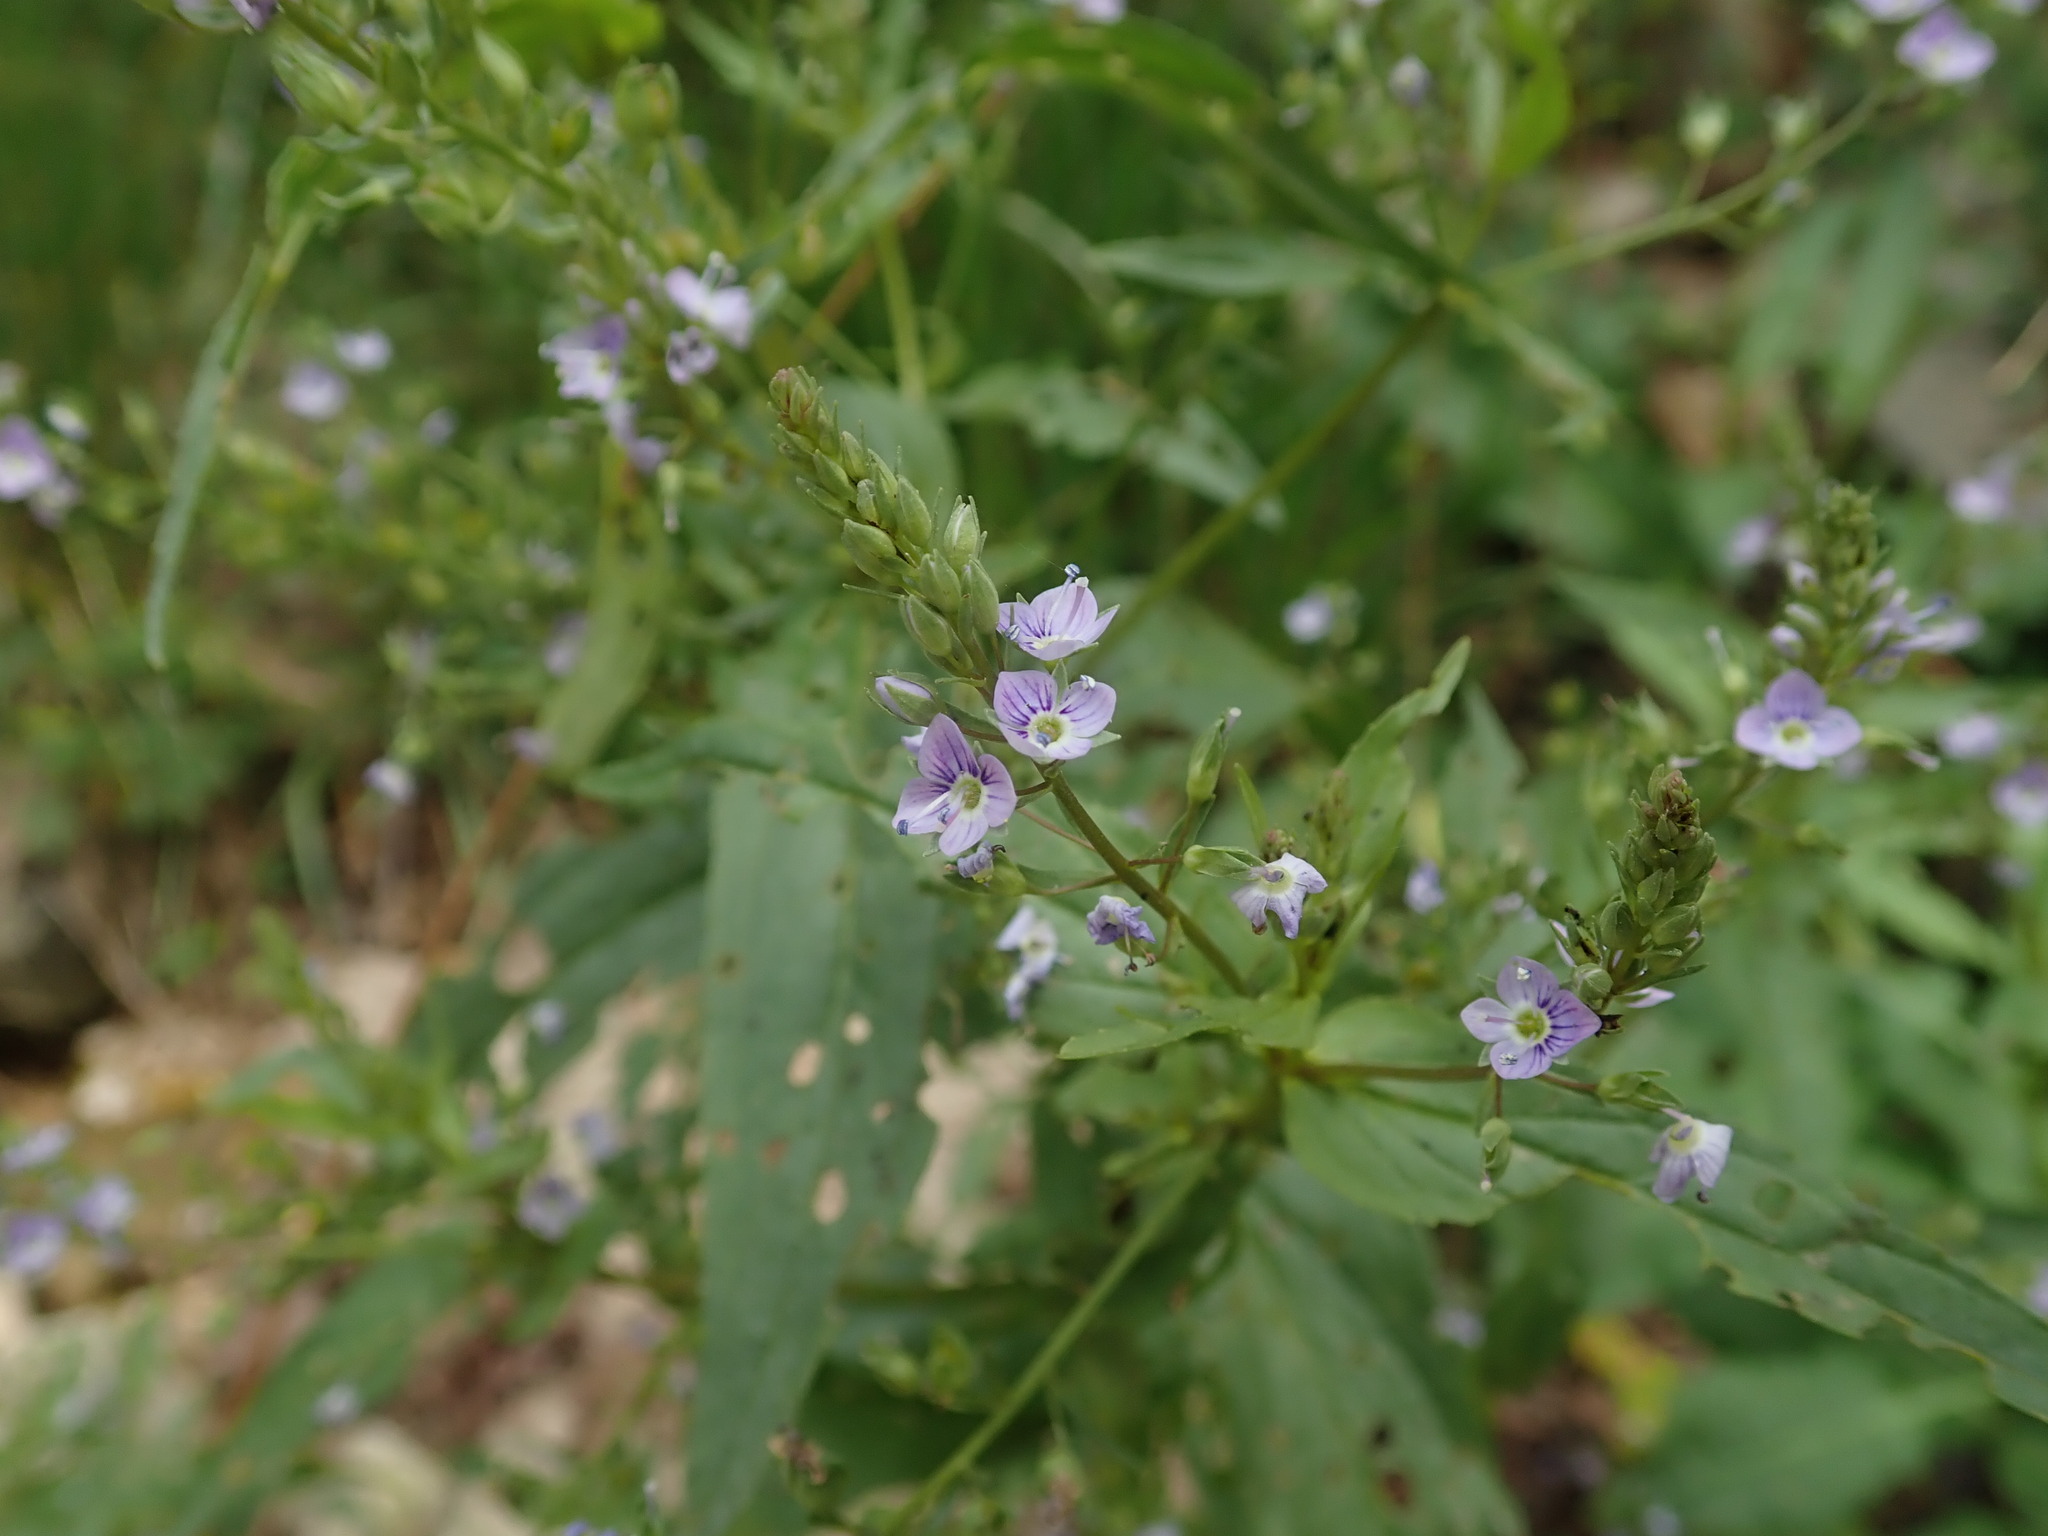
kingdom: Plantae
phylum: Tracheophyta
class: Magnoliopsida
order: Lamiales
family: Plantaginaceae
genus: Veronica
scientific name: Veronica anagallis-aquatica
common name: Water speedwell
